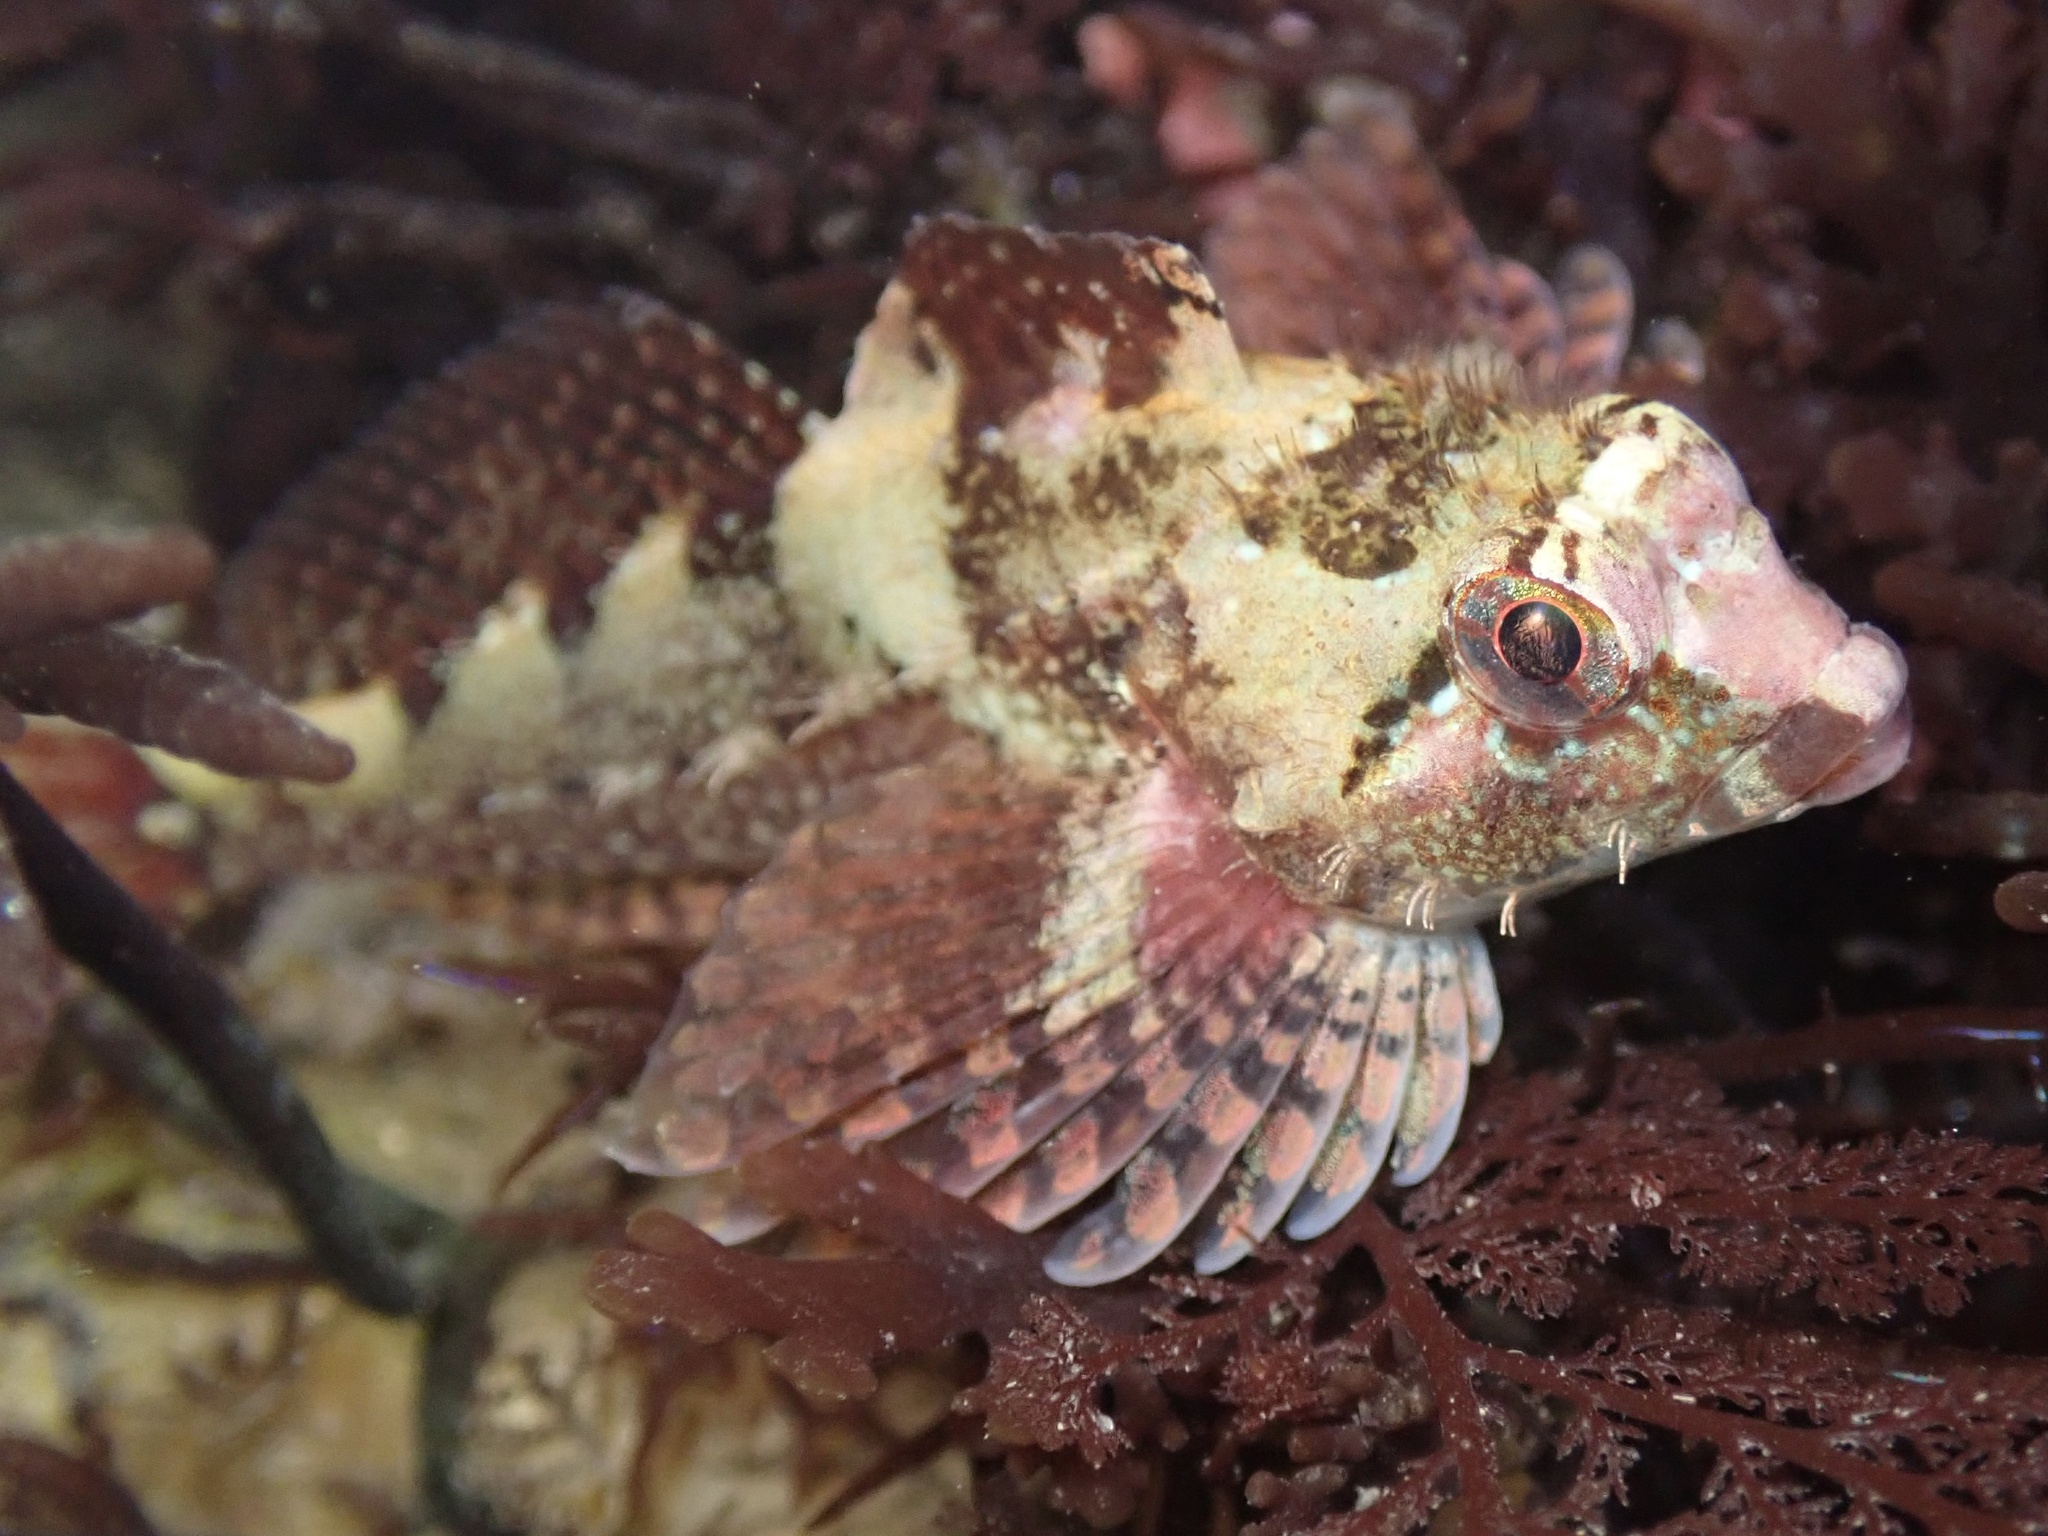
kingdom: Animalia
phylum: Chordata
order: Scorpaeniformes
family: Cottidae
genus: Oligocottus
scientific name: Oligocottus rubellio
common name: Rosy sculpin
